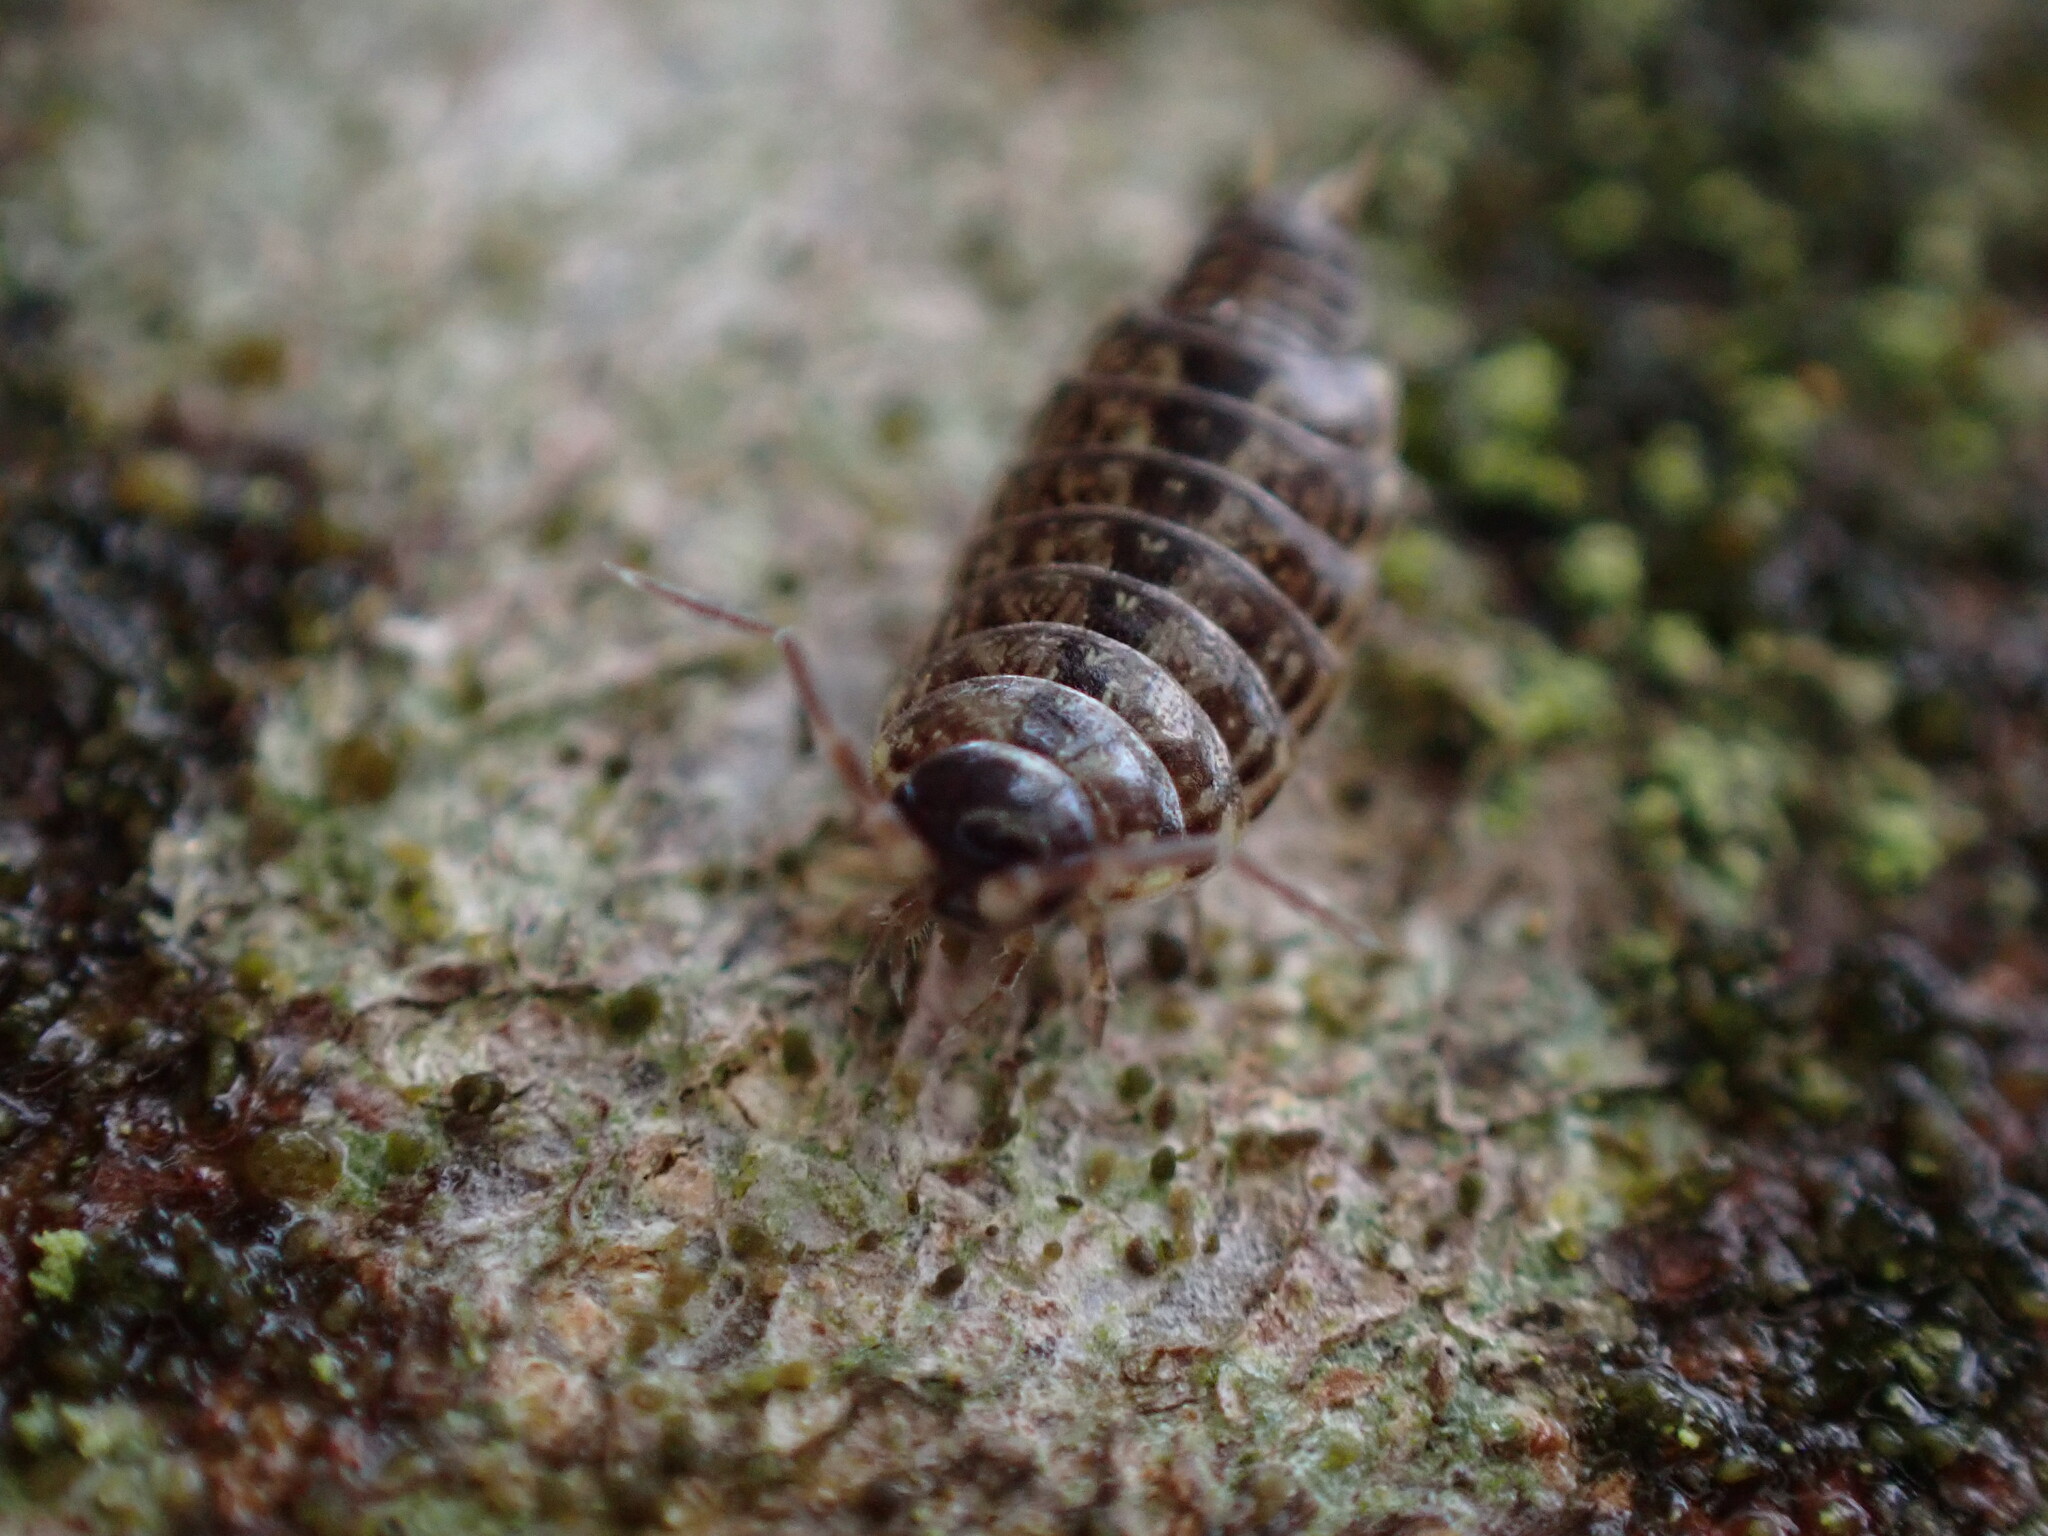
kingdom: Animalia
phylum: Arthropoda
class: Malacostraca
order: Isopoda
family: Philosciidae
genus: Philoscia
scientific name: Philoscia muscorum
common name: Common striped woodlouse
